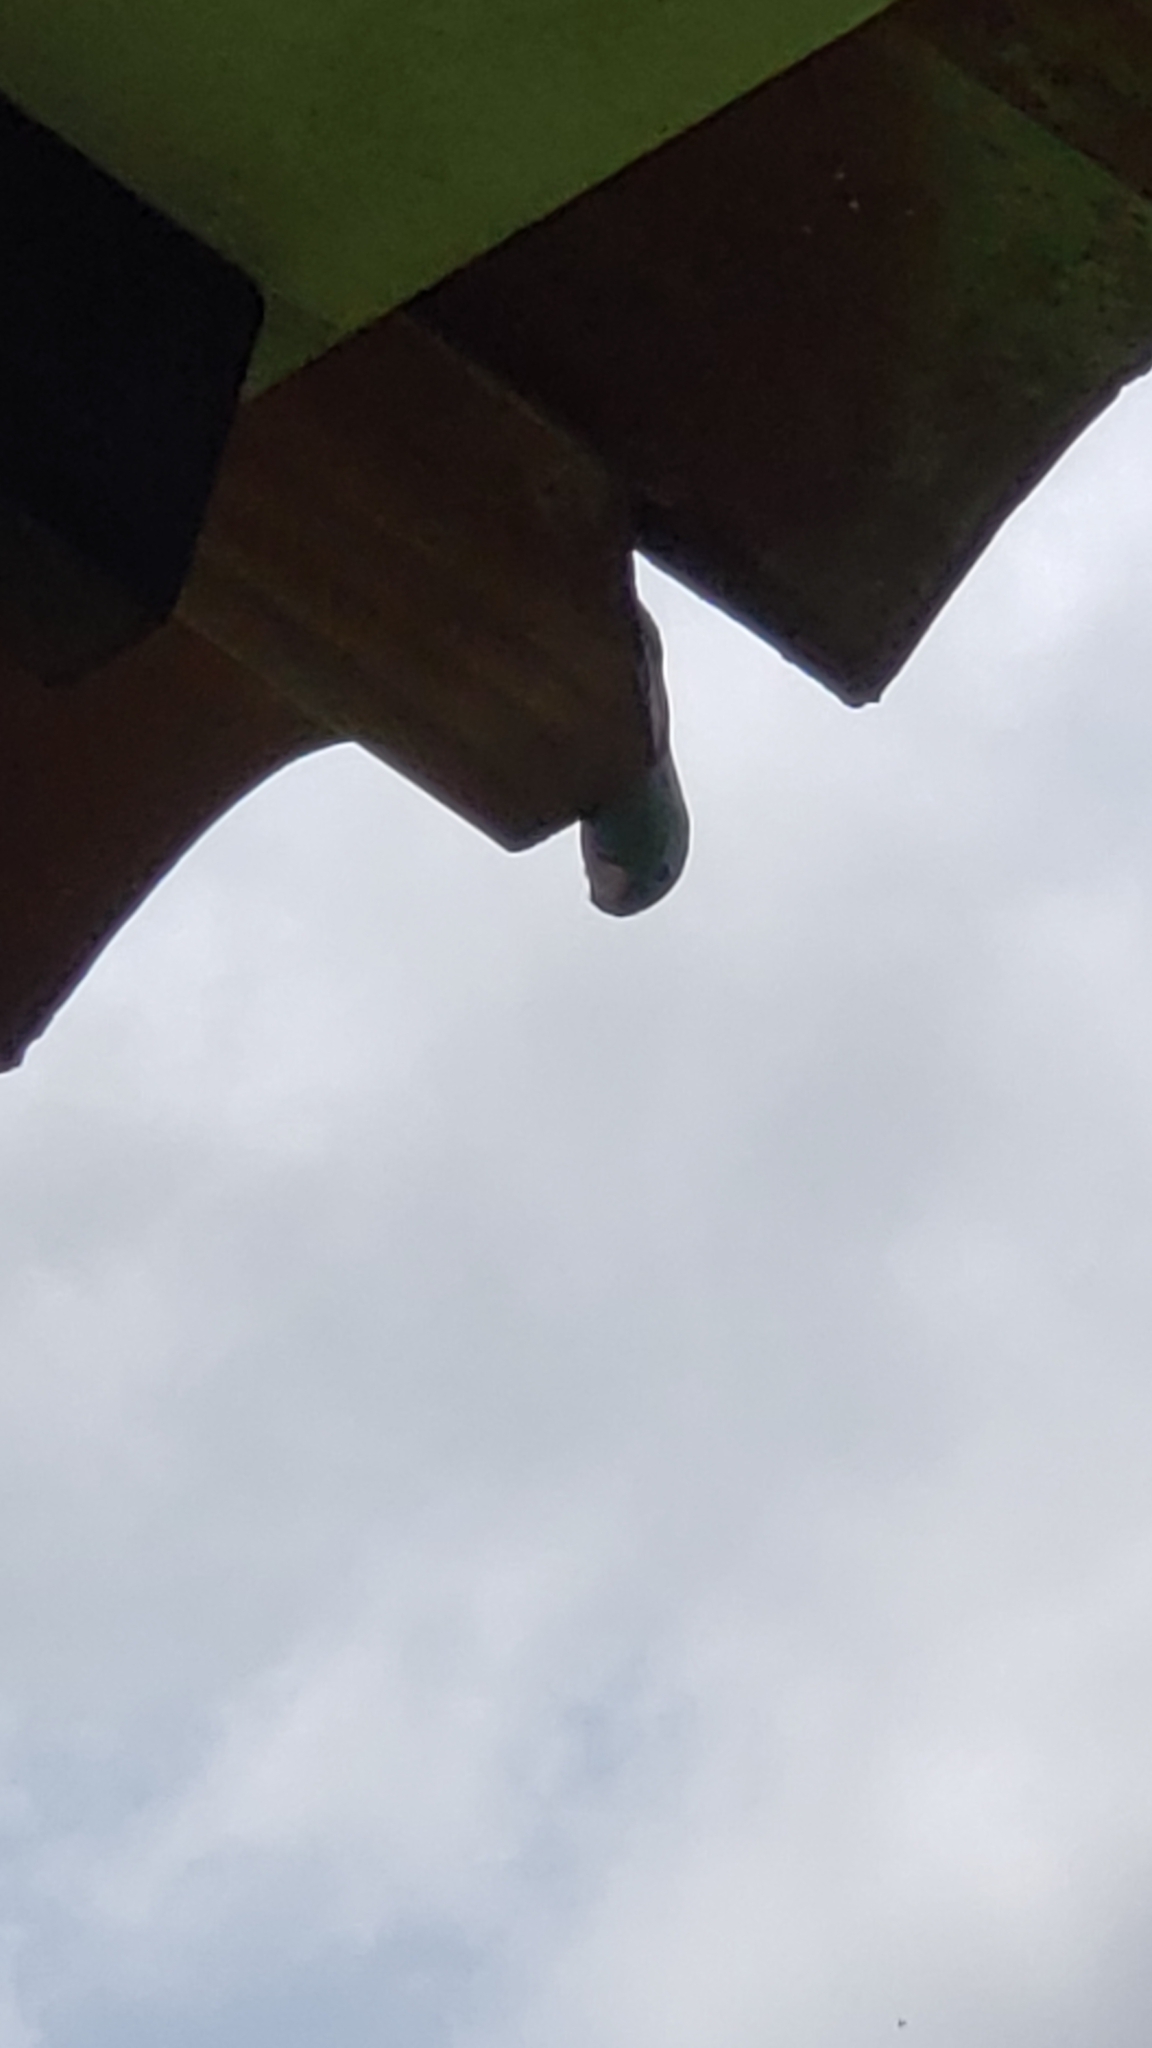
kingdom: Animalia
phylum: Chordata
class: Aves
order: Psittaciformes
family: Psittacidae
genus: Forpus
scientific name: Forpus conspicillatus
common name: Spectacled parrotlet
